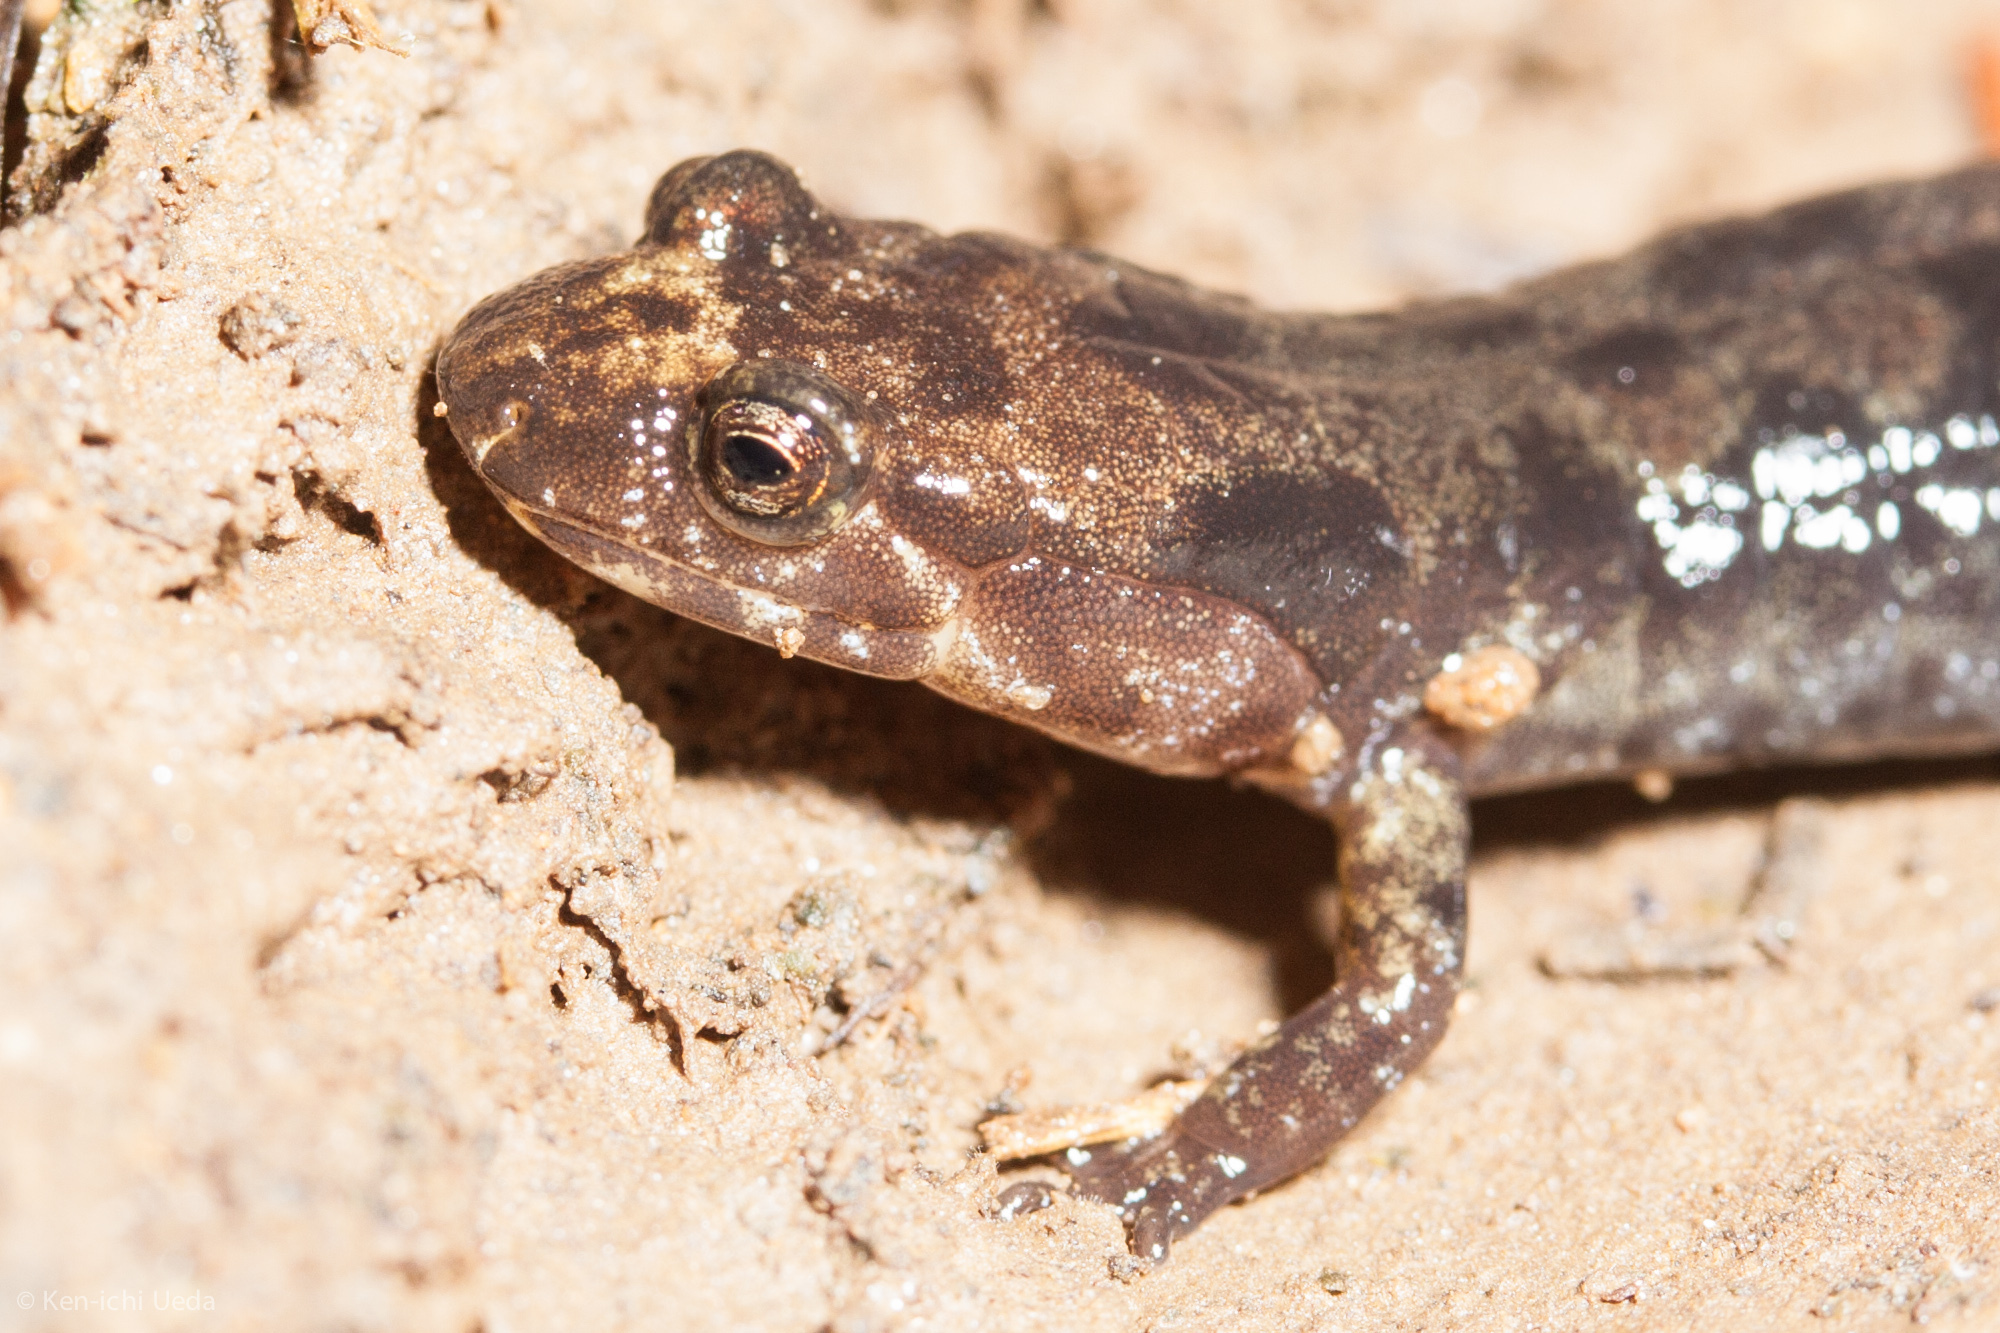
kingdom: Animalia
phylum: Chordata
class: Amphibia
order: Caudata
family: Plethodontidae
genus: Desmognathus
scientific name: Desmognathus imitator
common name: Imitator salamander
